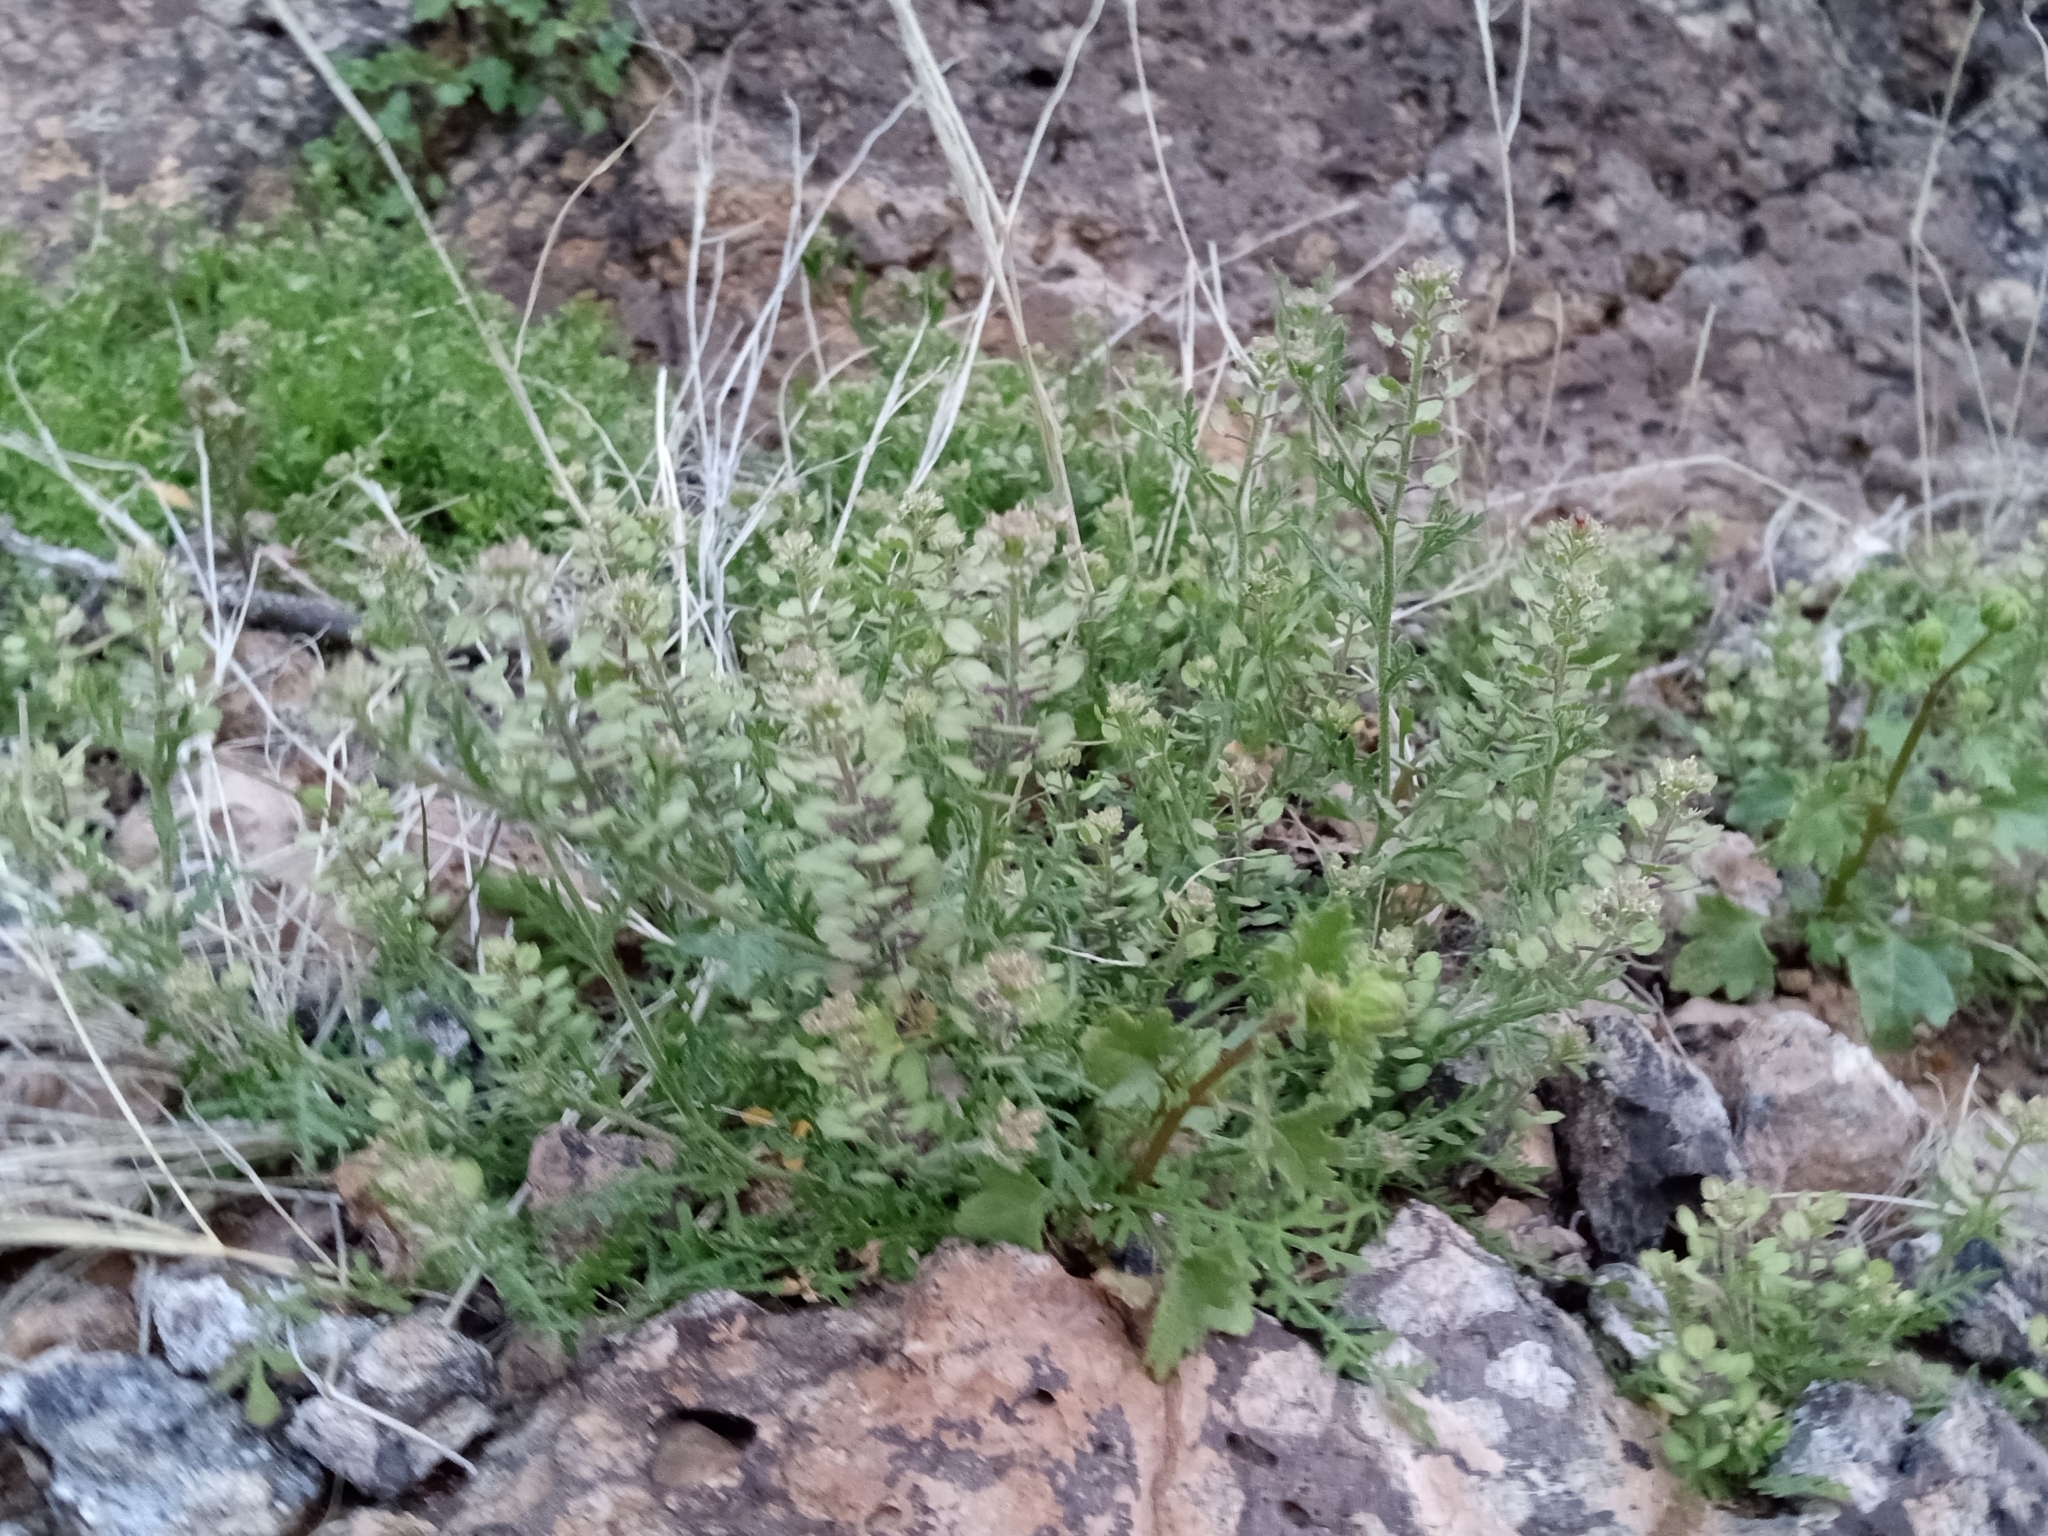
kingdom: Plantae
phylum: Tracheophyta
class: Magnoliopsida
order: Brassicales
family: Brassicaceae
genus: Lepidium
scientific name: Lepidium lasiocarpum
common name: Hairy-pod pepperwort
